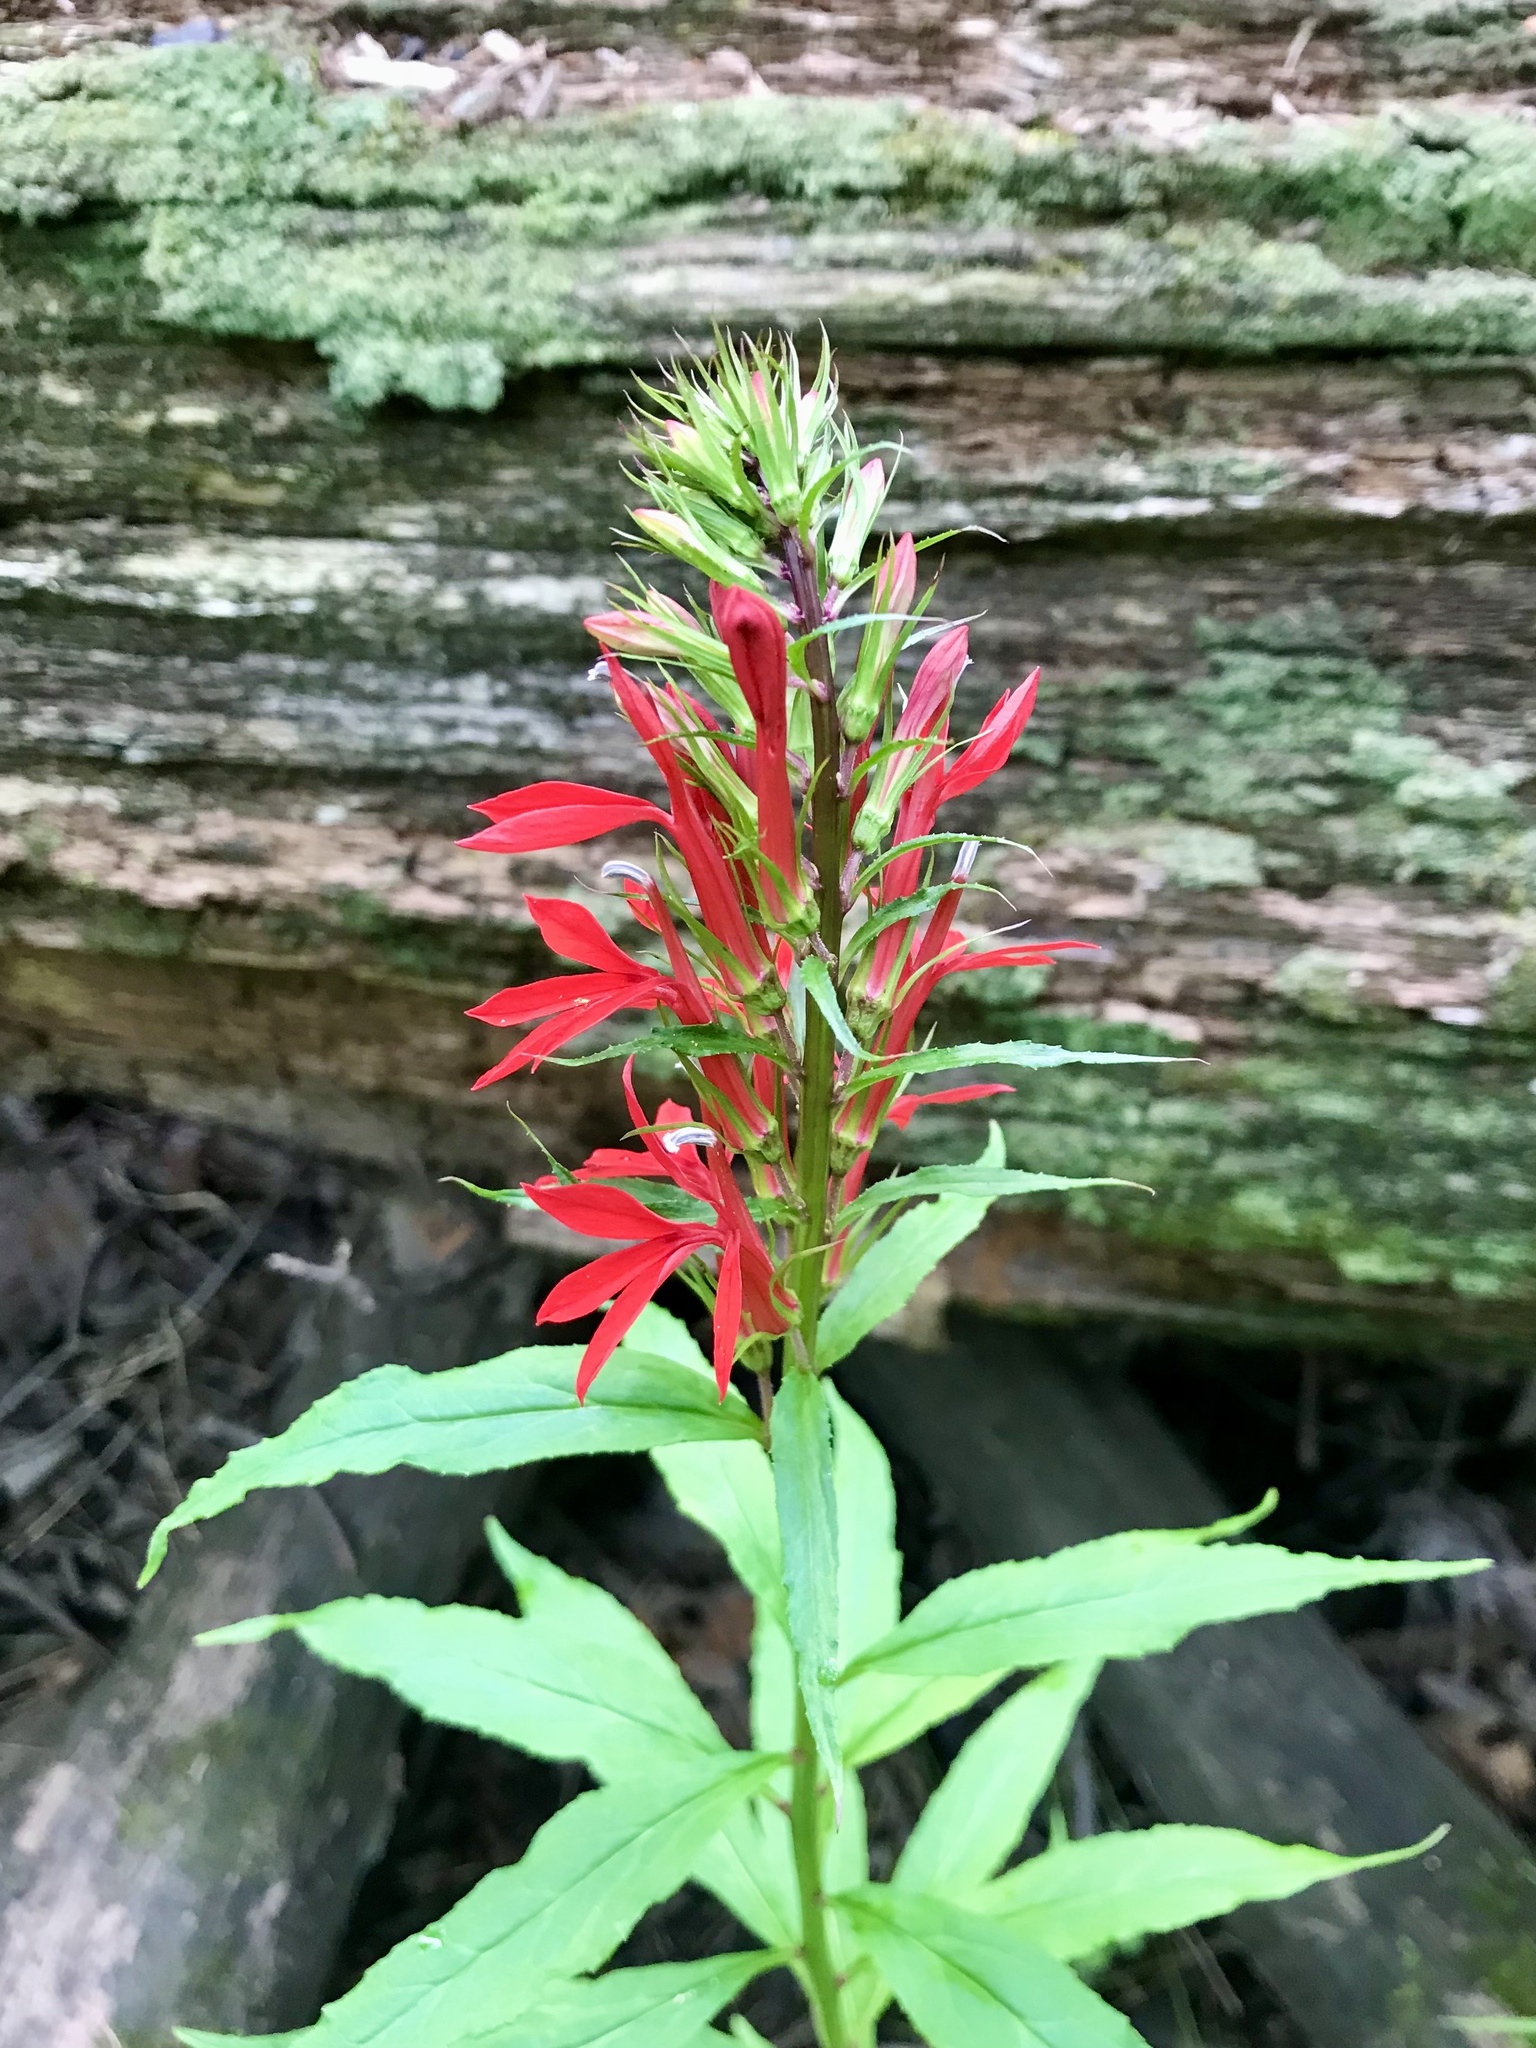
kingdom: Plantae
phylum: Tracheophyta
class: Magnoliopsida
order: Asterales
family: Campanulaceae
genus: Lobelia
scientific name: Lobelia cardinalis
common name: Cardinal flower
